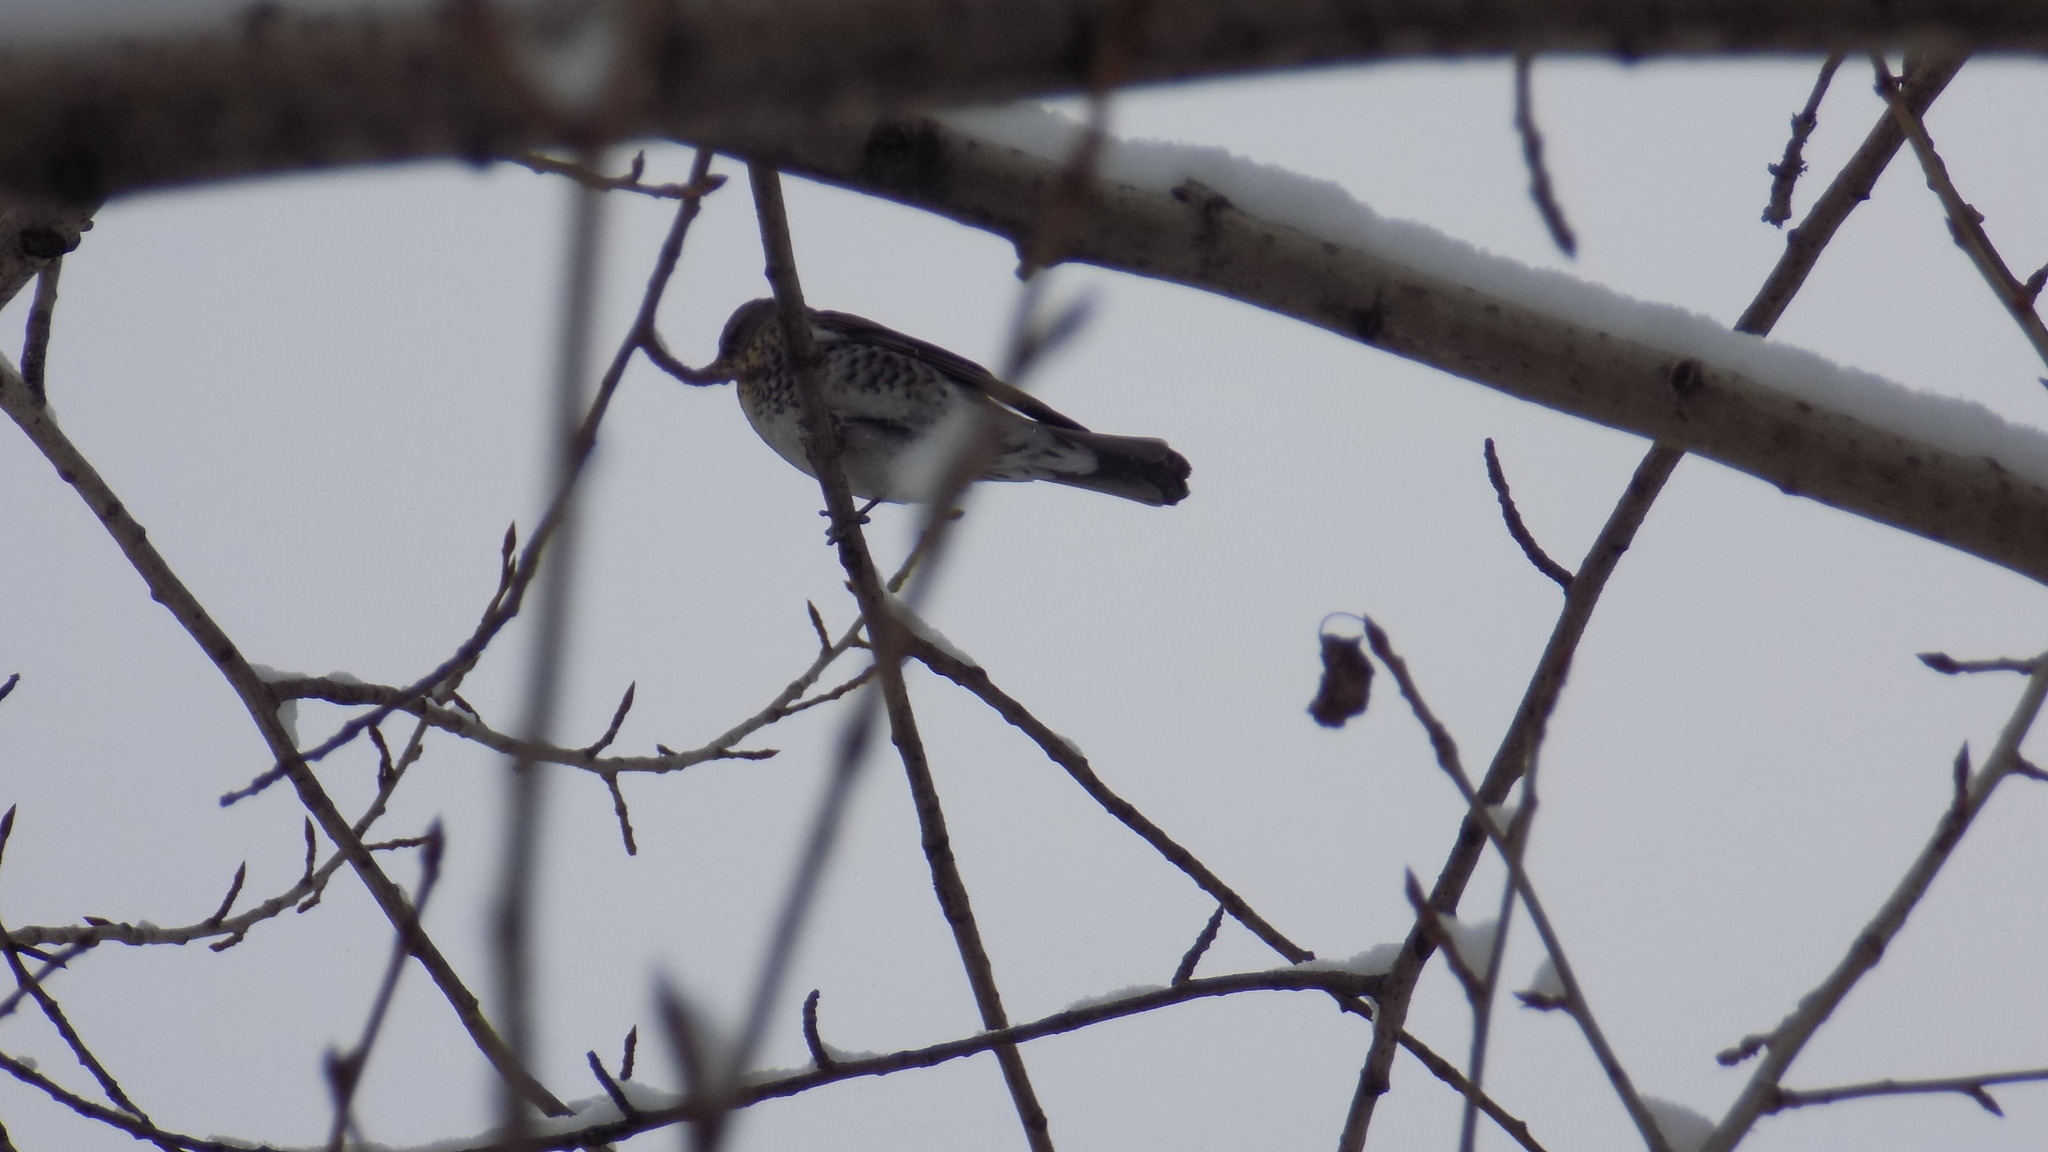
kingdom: Animalia
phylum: Chordata
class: Aves
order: Passeriformes
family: Turdidae
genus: Turdus
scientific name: Turdus pilaris
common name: Fieldfare
